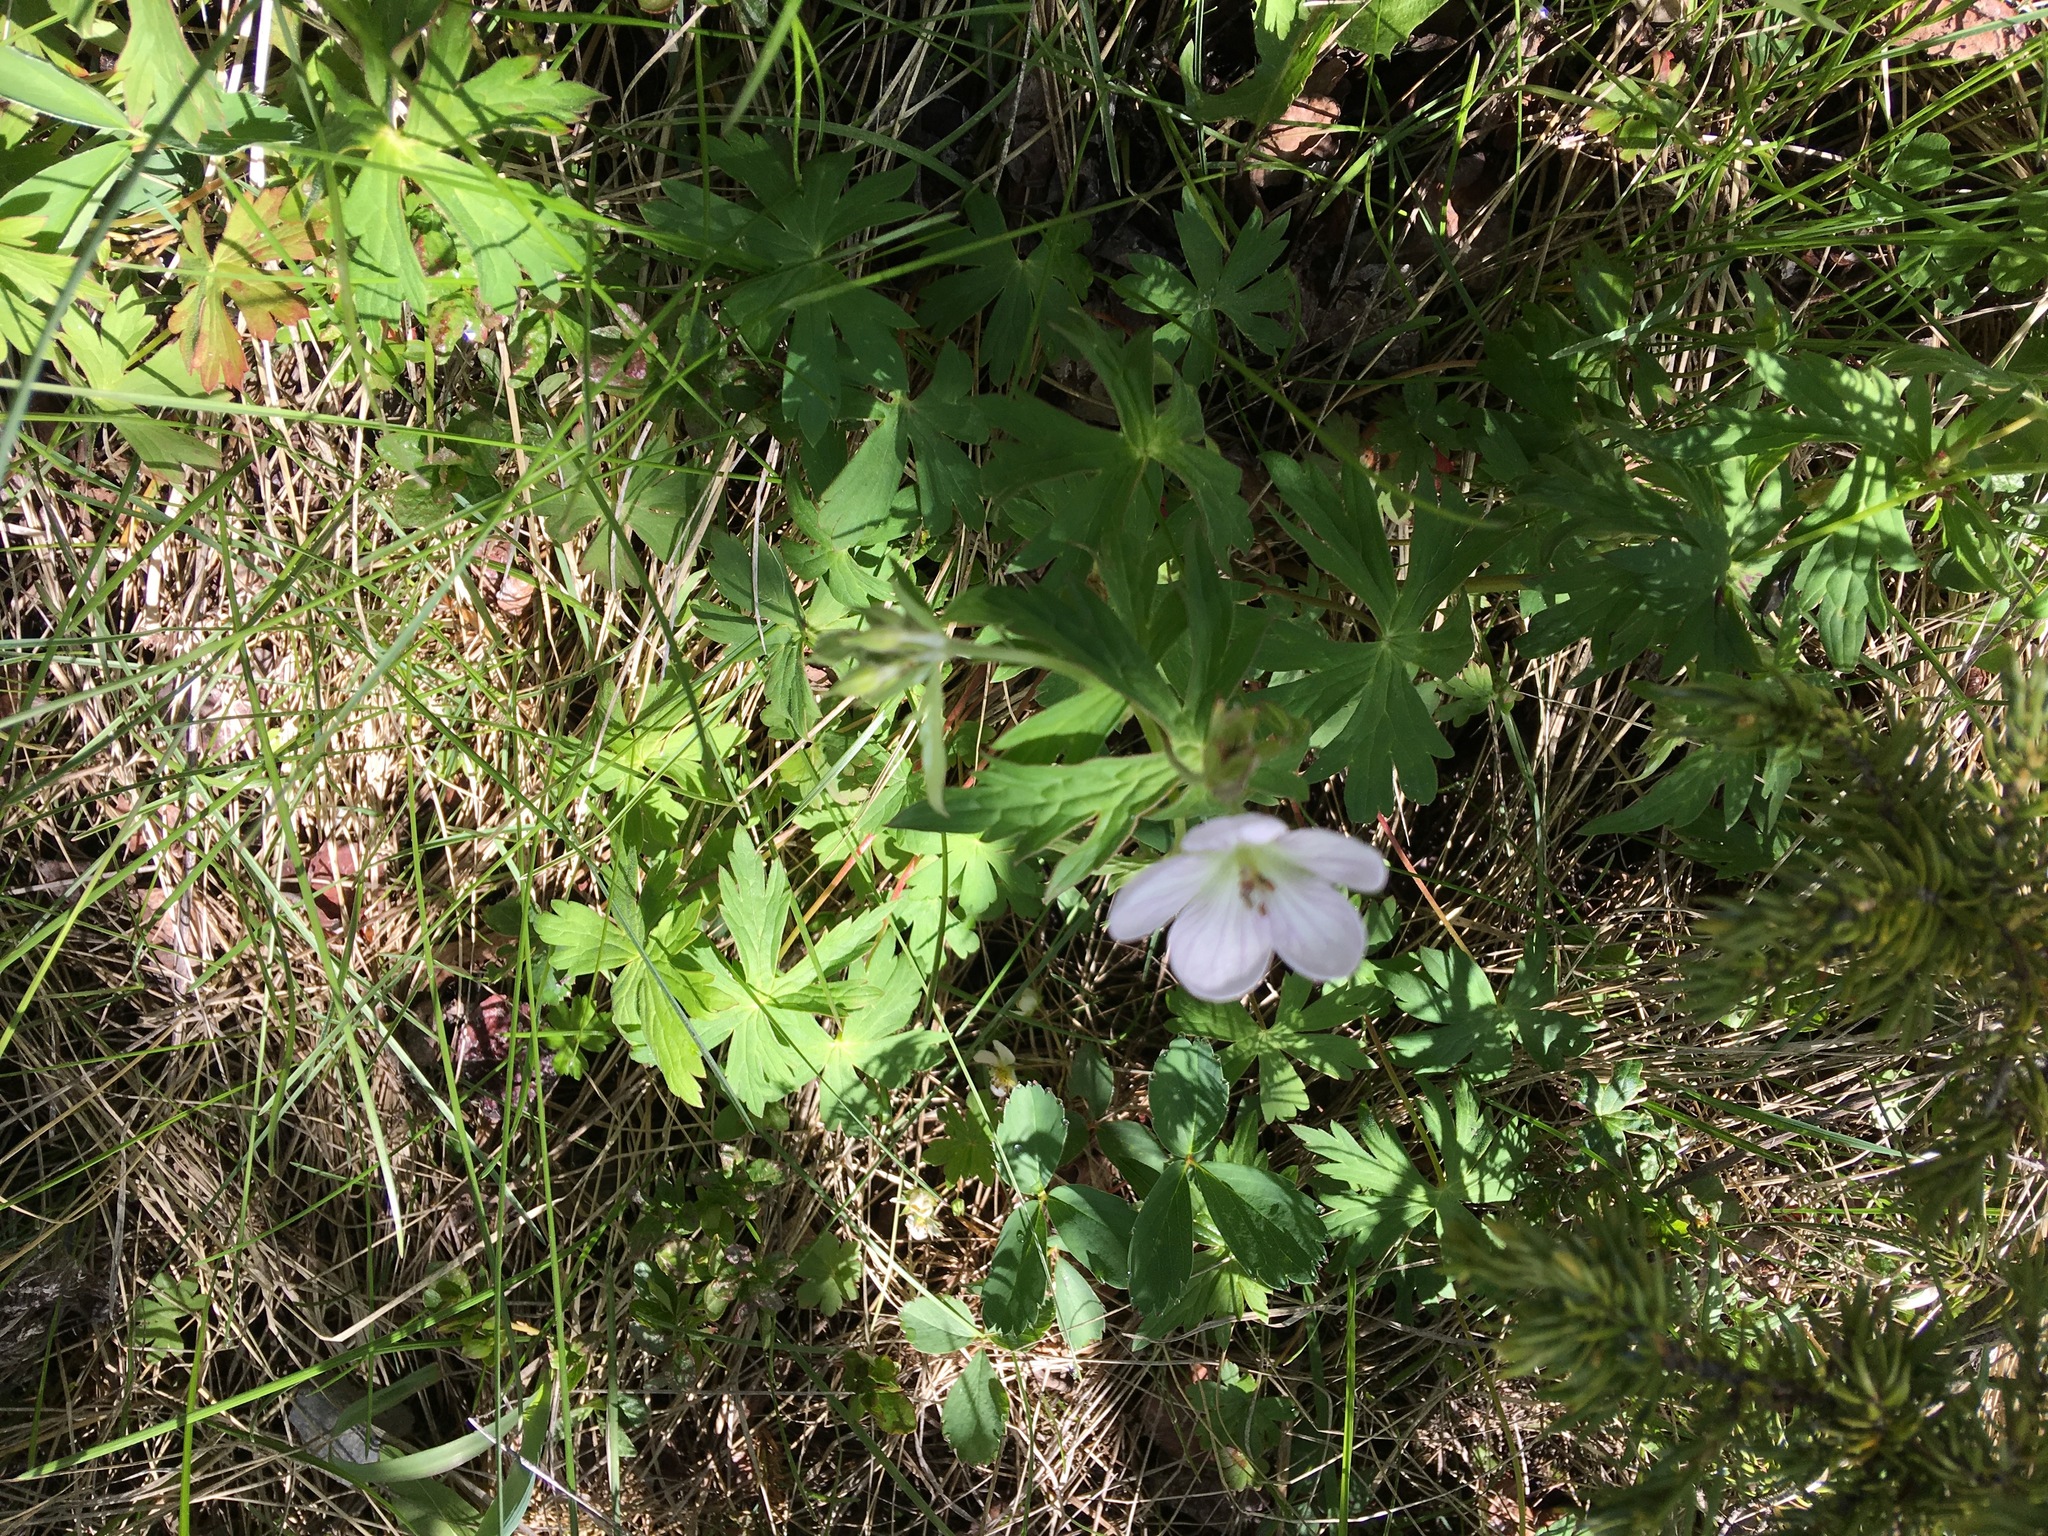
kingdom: Plantae
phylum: Tracheophyta
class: Magnoliopsida
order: Geraniales
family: Geraniaceae
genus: Geranium
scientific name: Geranium richardsonii
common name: Richardson's crane's-bill
